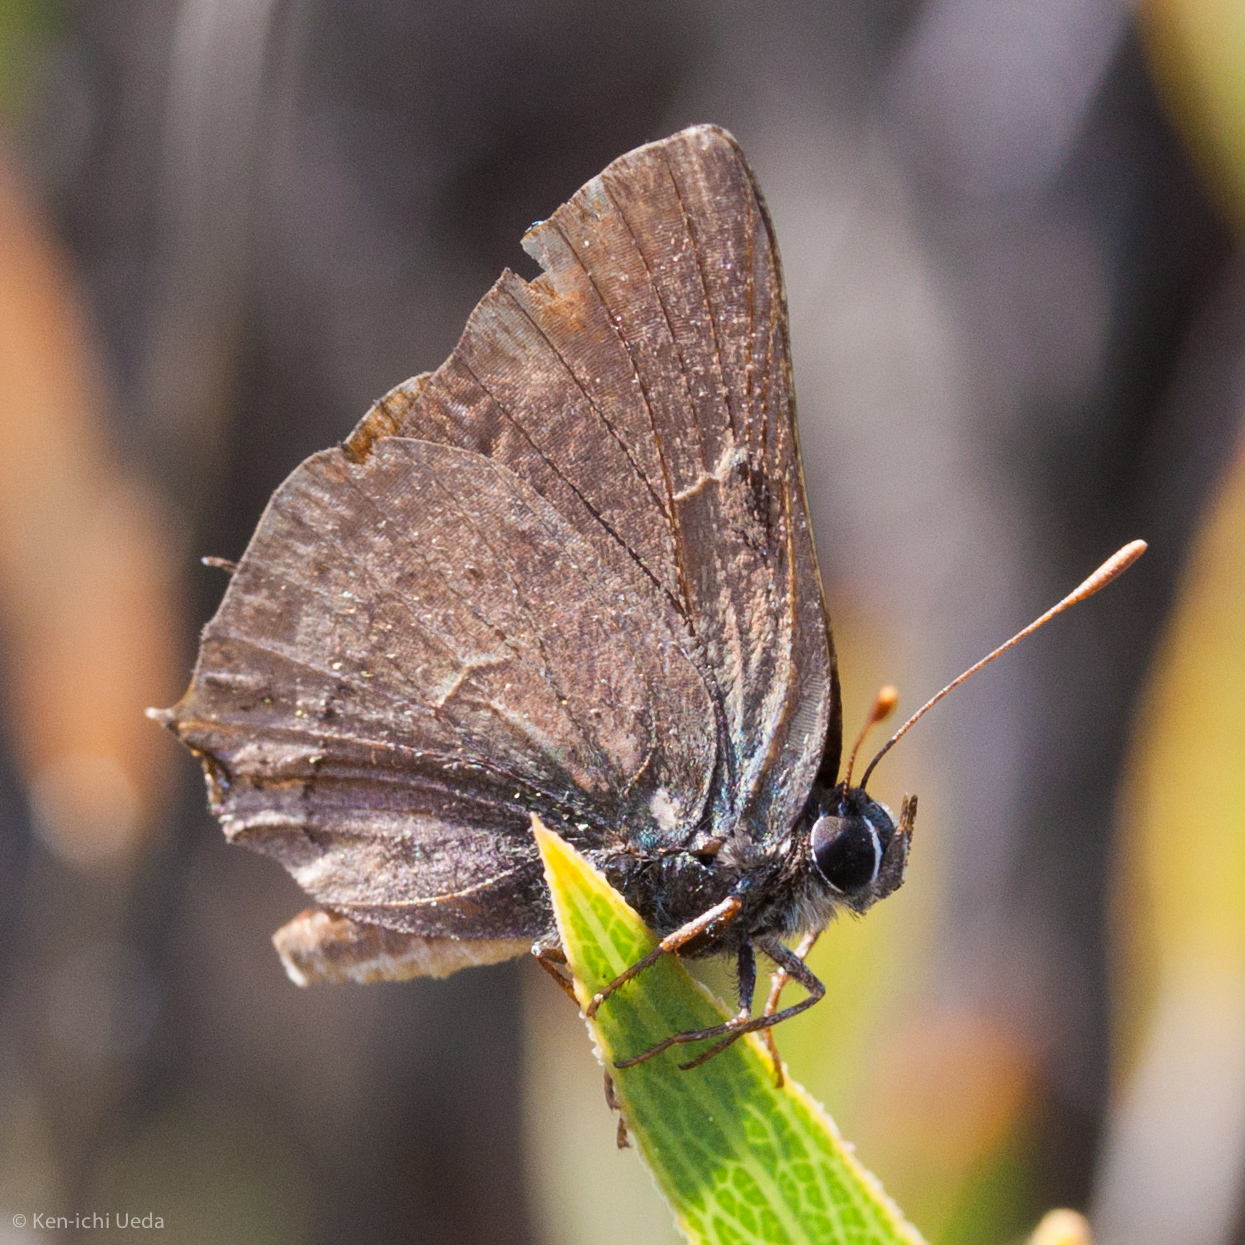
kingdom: Animalia
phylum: Arthropoda
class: Insecta
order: Lepidoptera
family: Lycaenidae
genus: Strymon
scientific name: Strymon saepium
